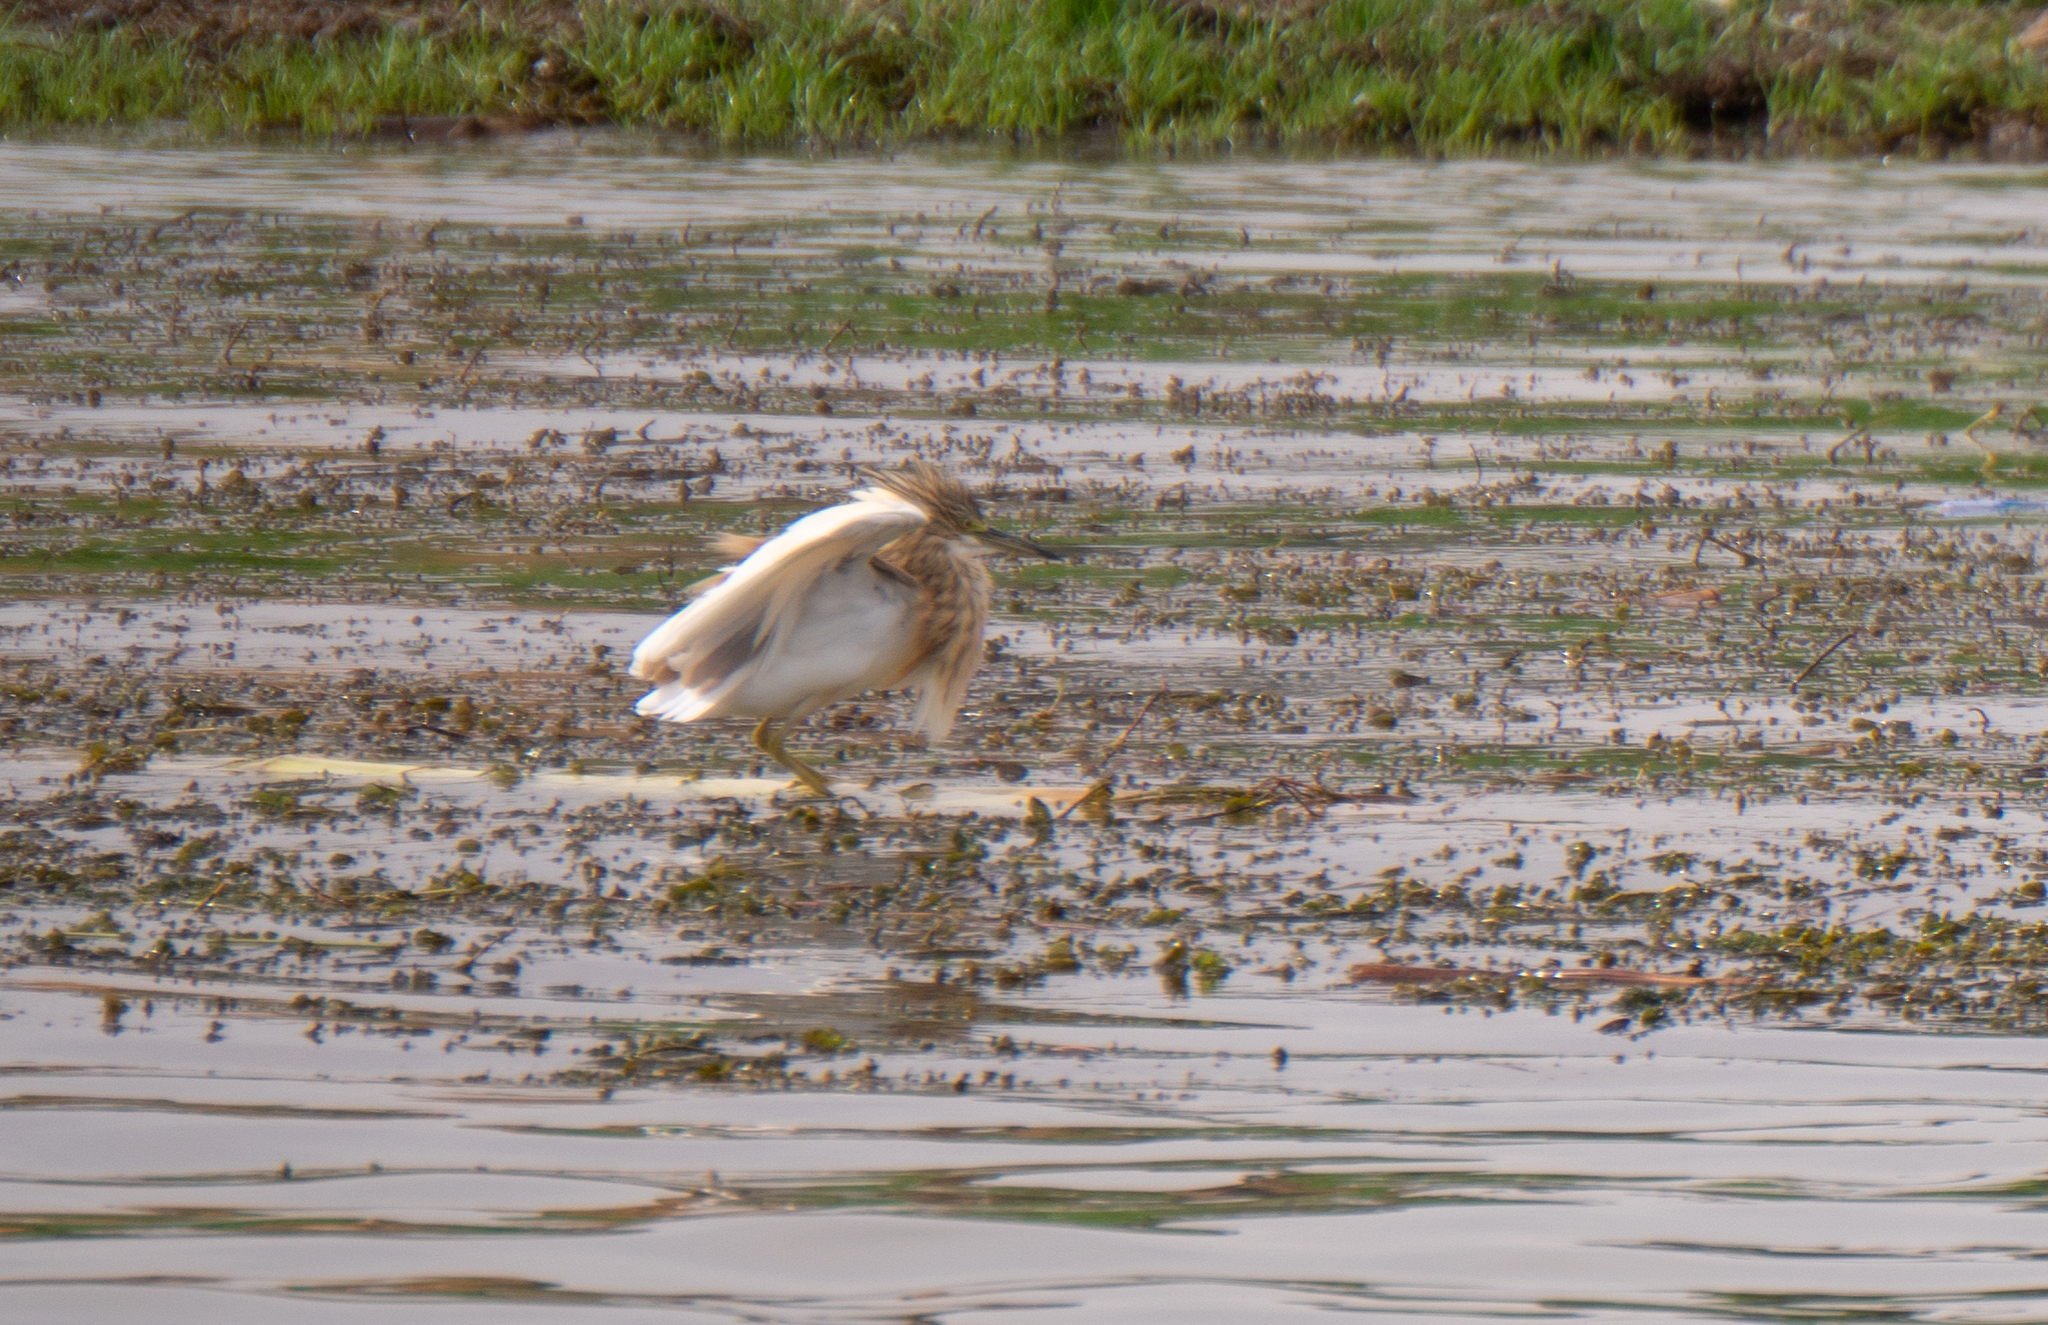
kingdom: Animalia
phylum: Chordata
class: Aves
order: Pelecaniformes
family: Ardeidae
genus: Ardeola
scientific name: Ardeola ralloides
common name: Squacco heron
